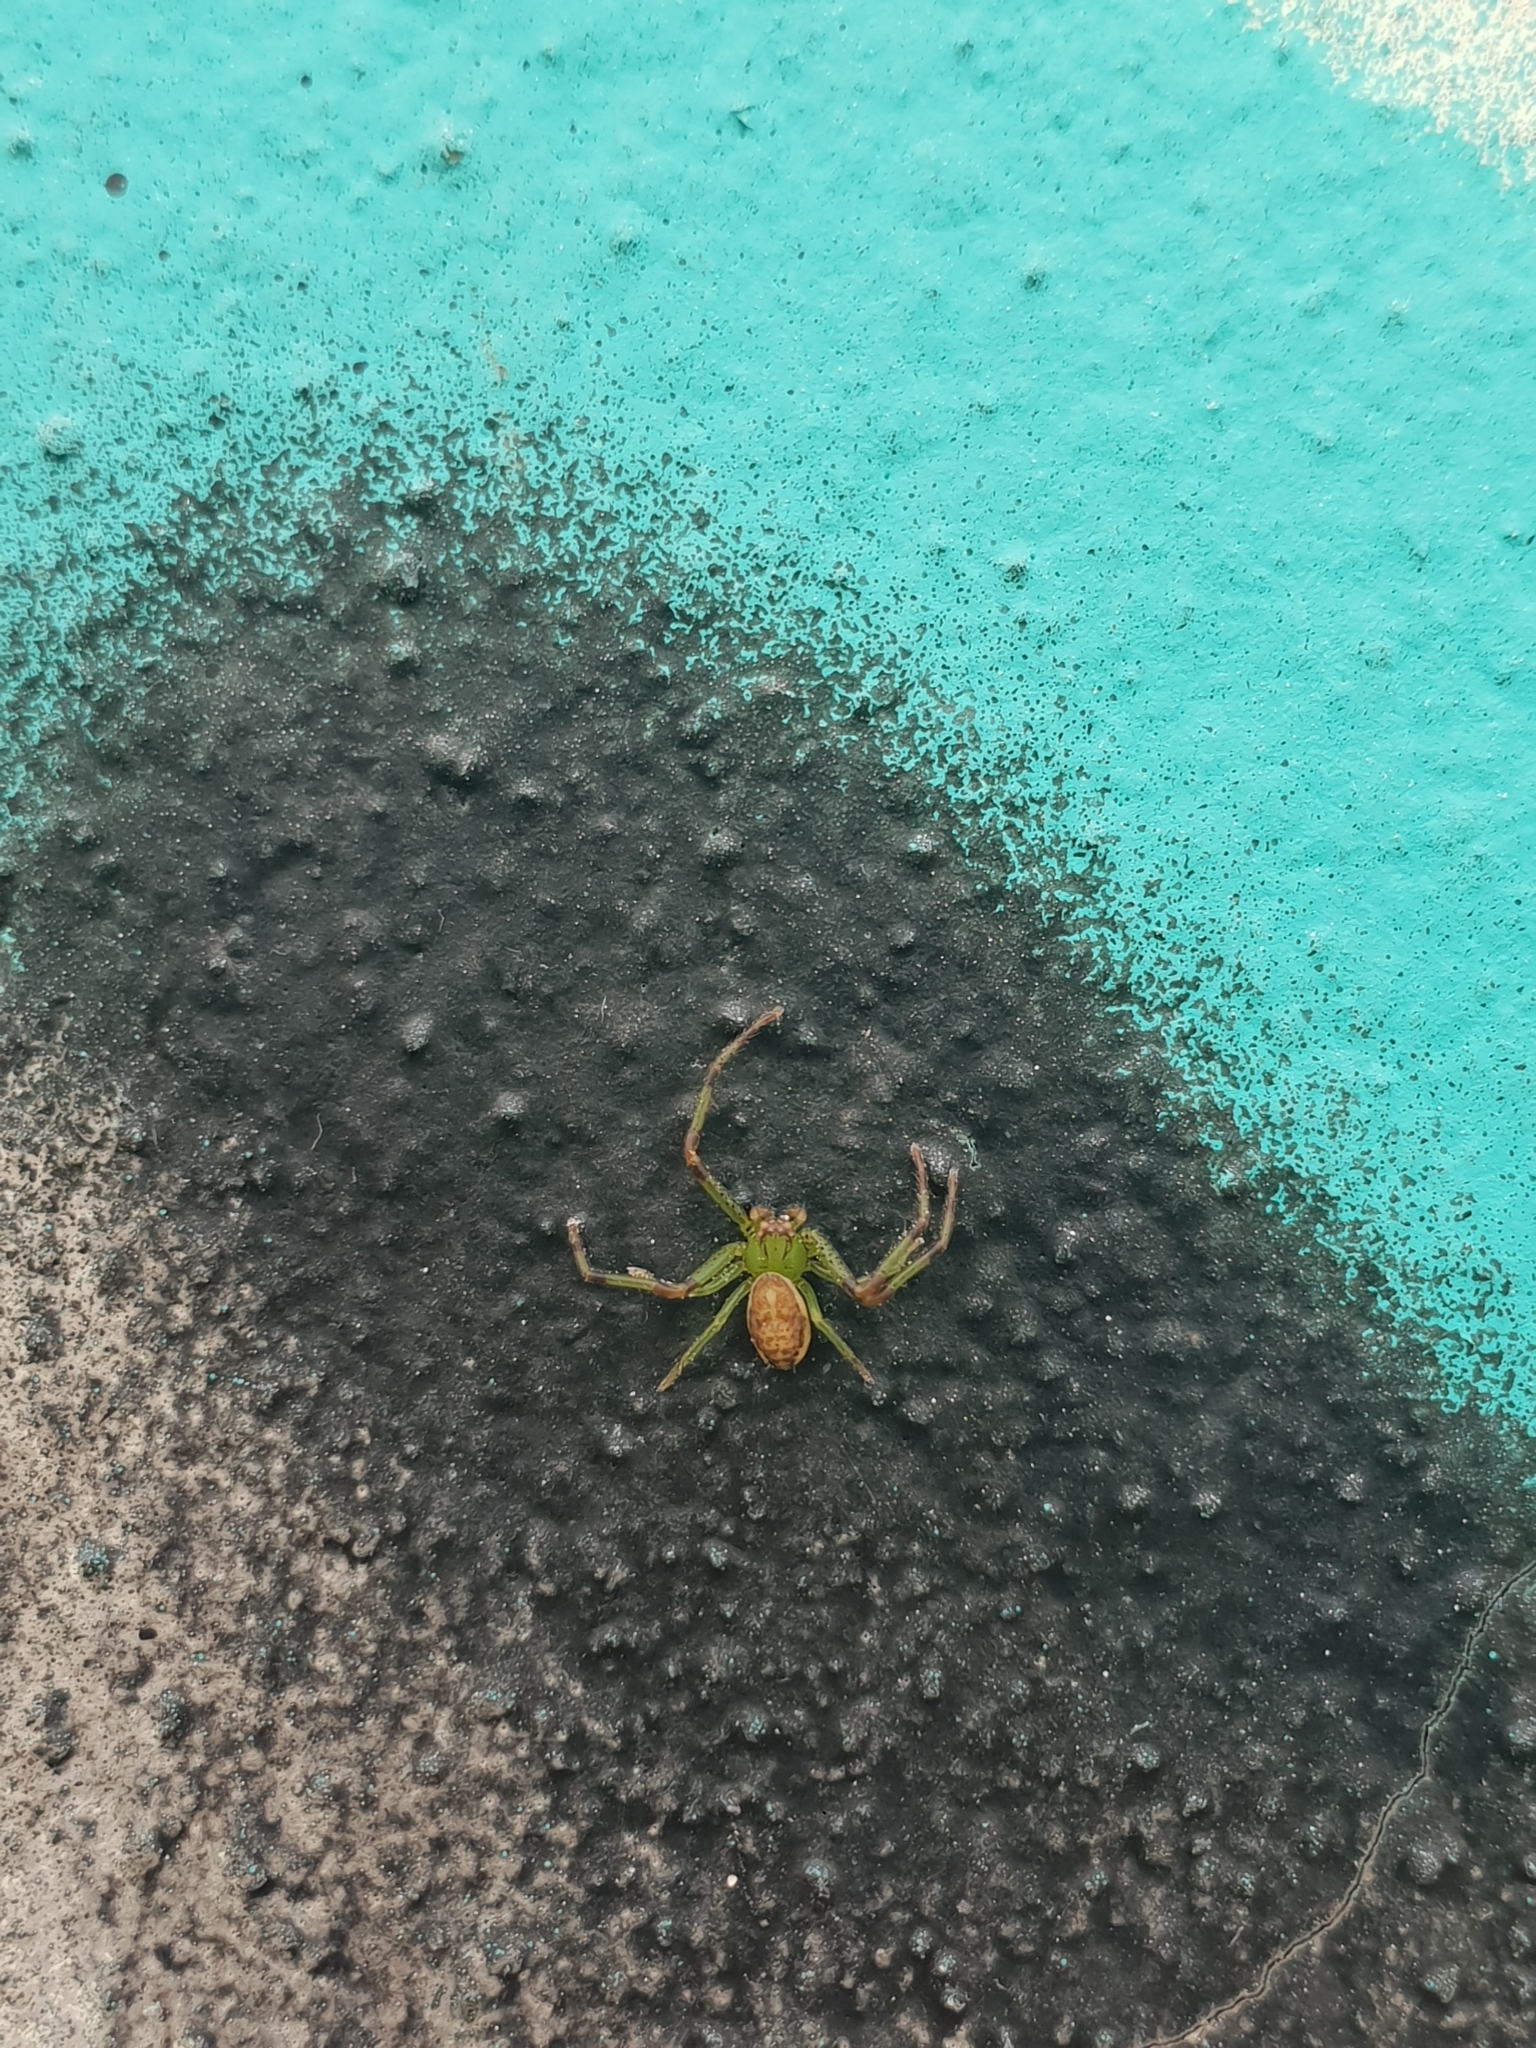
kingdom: Animalia
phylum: Arthropoda
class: Arachnida
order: Araneae
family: Thomisidae
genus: Diaea
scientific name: Diaea dorsata
